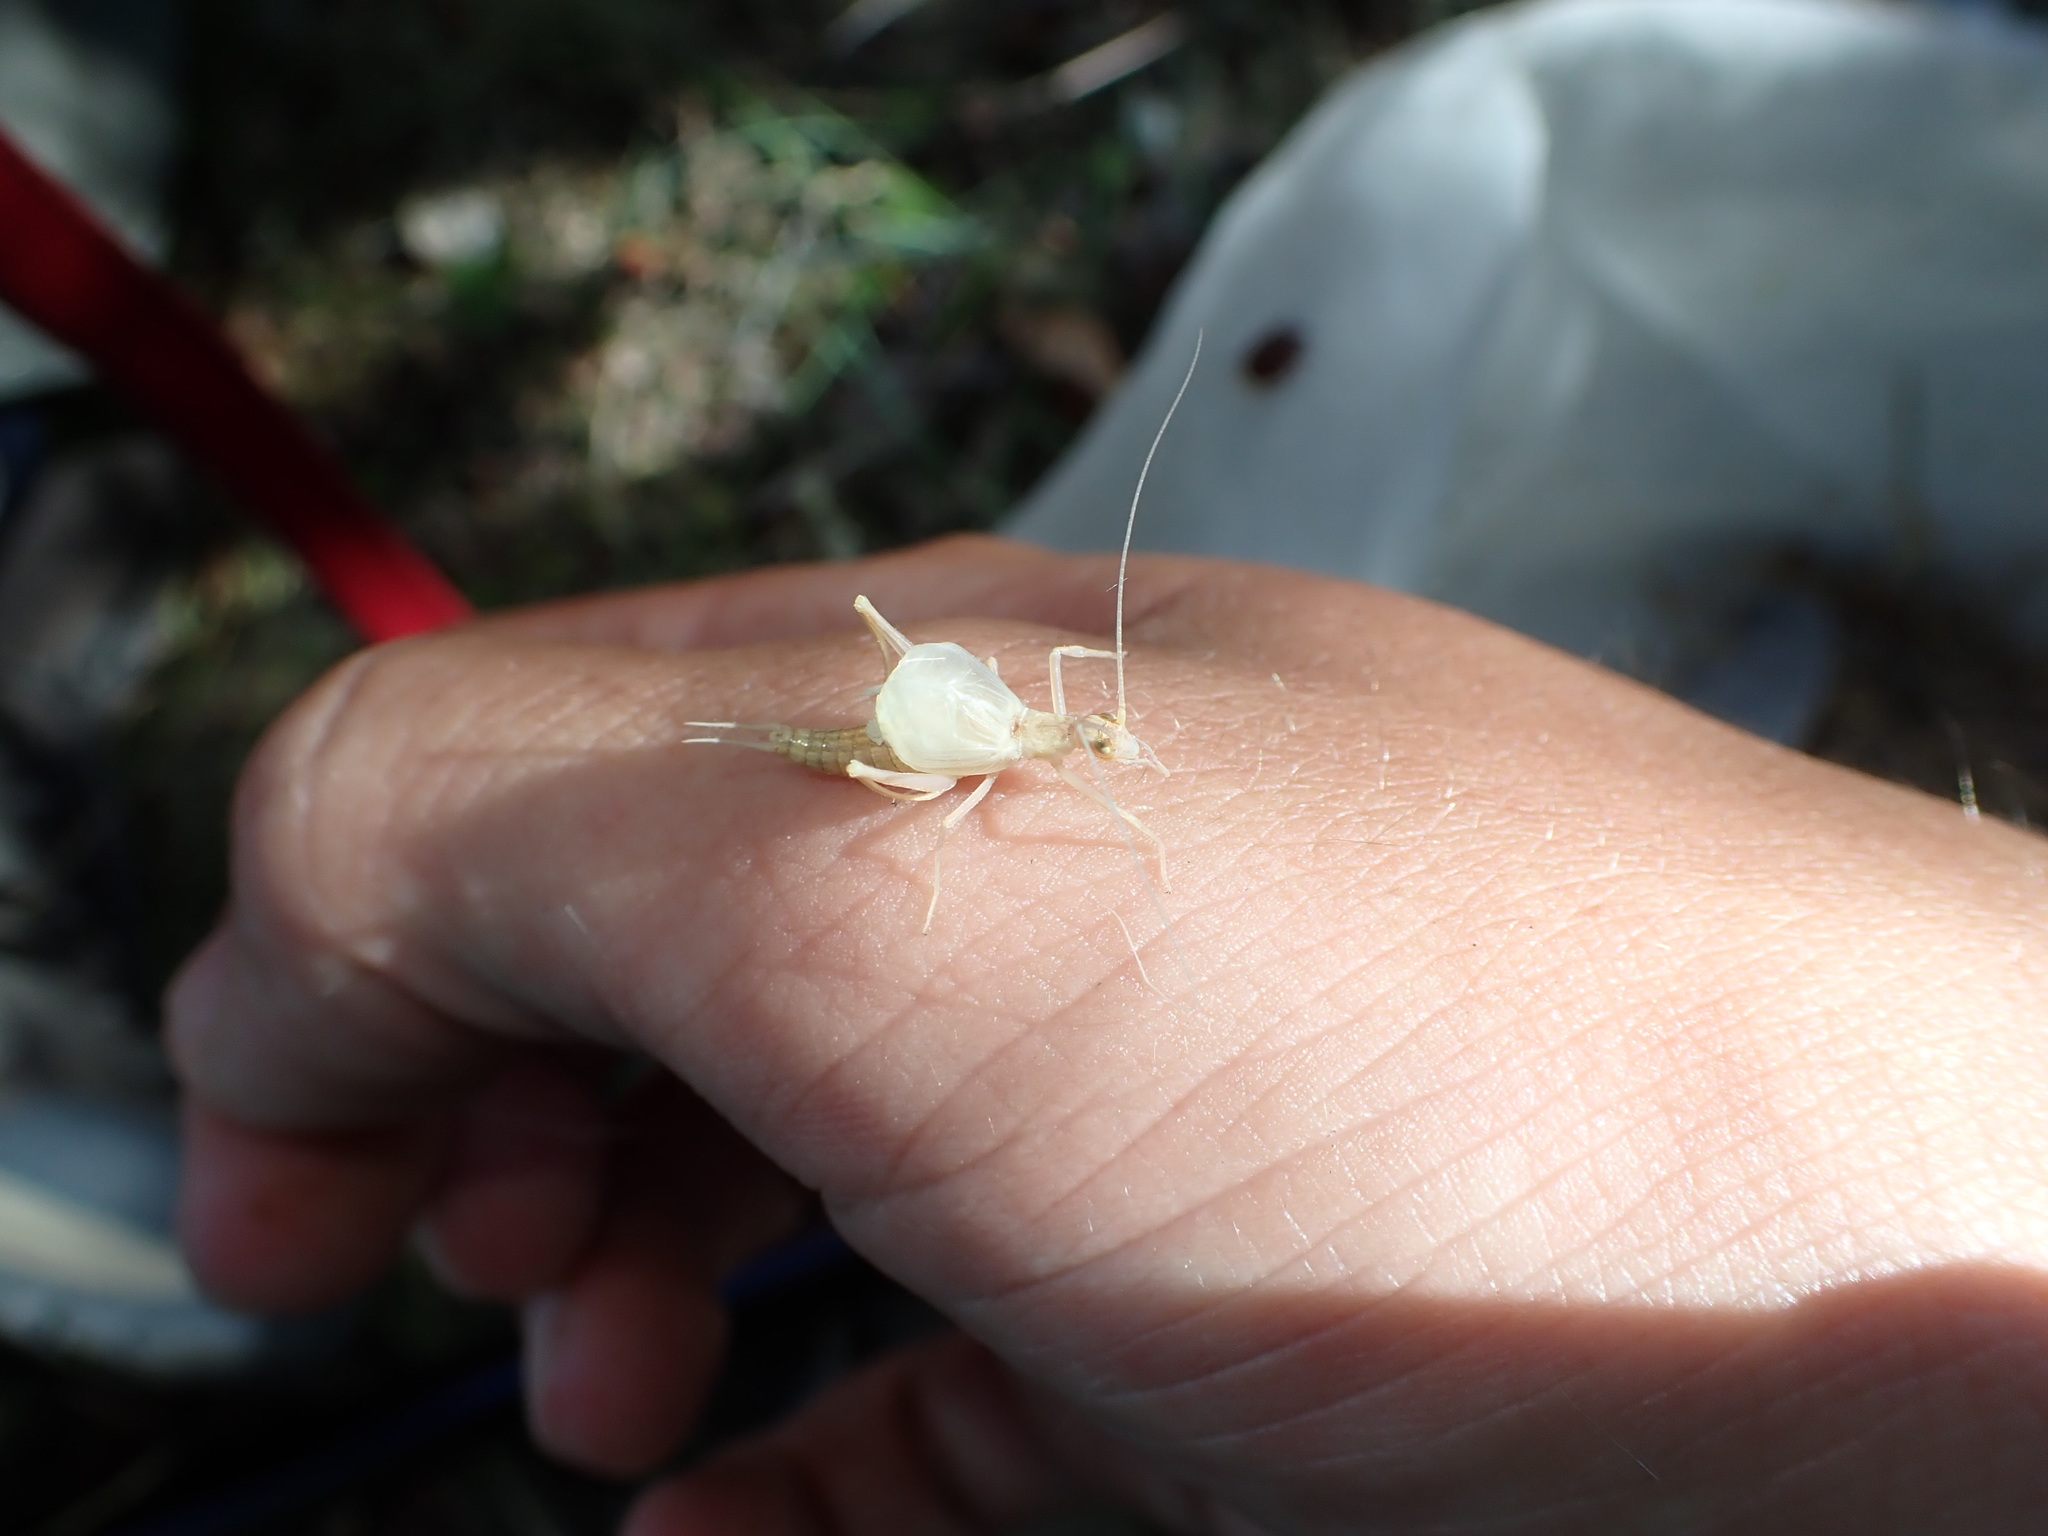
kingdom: Animalia
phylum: Arthropoda
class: Insecta
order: Orthoptera
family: Gryllidae
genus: Oecanthus
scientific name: Oecanthus pellucens
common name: Tree-cricket
